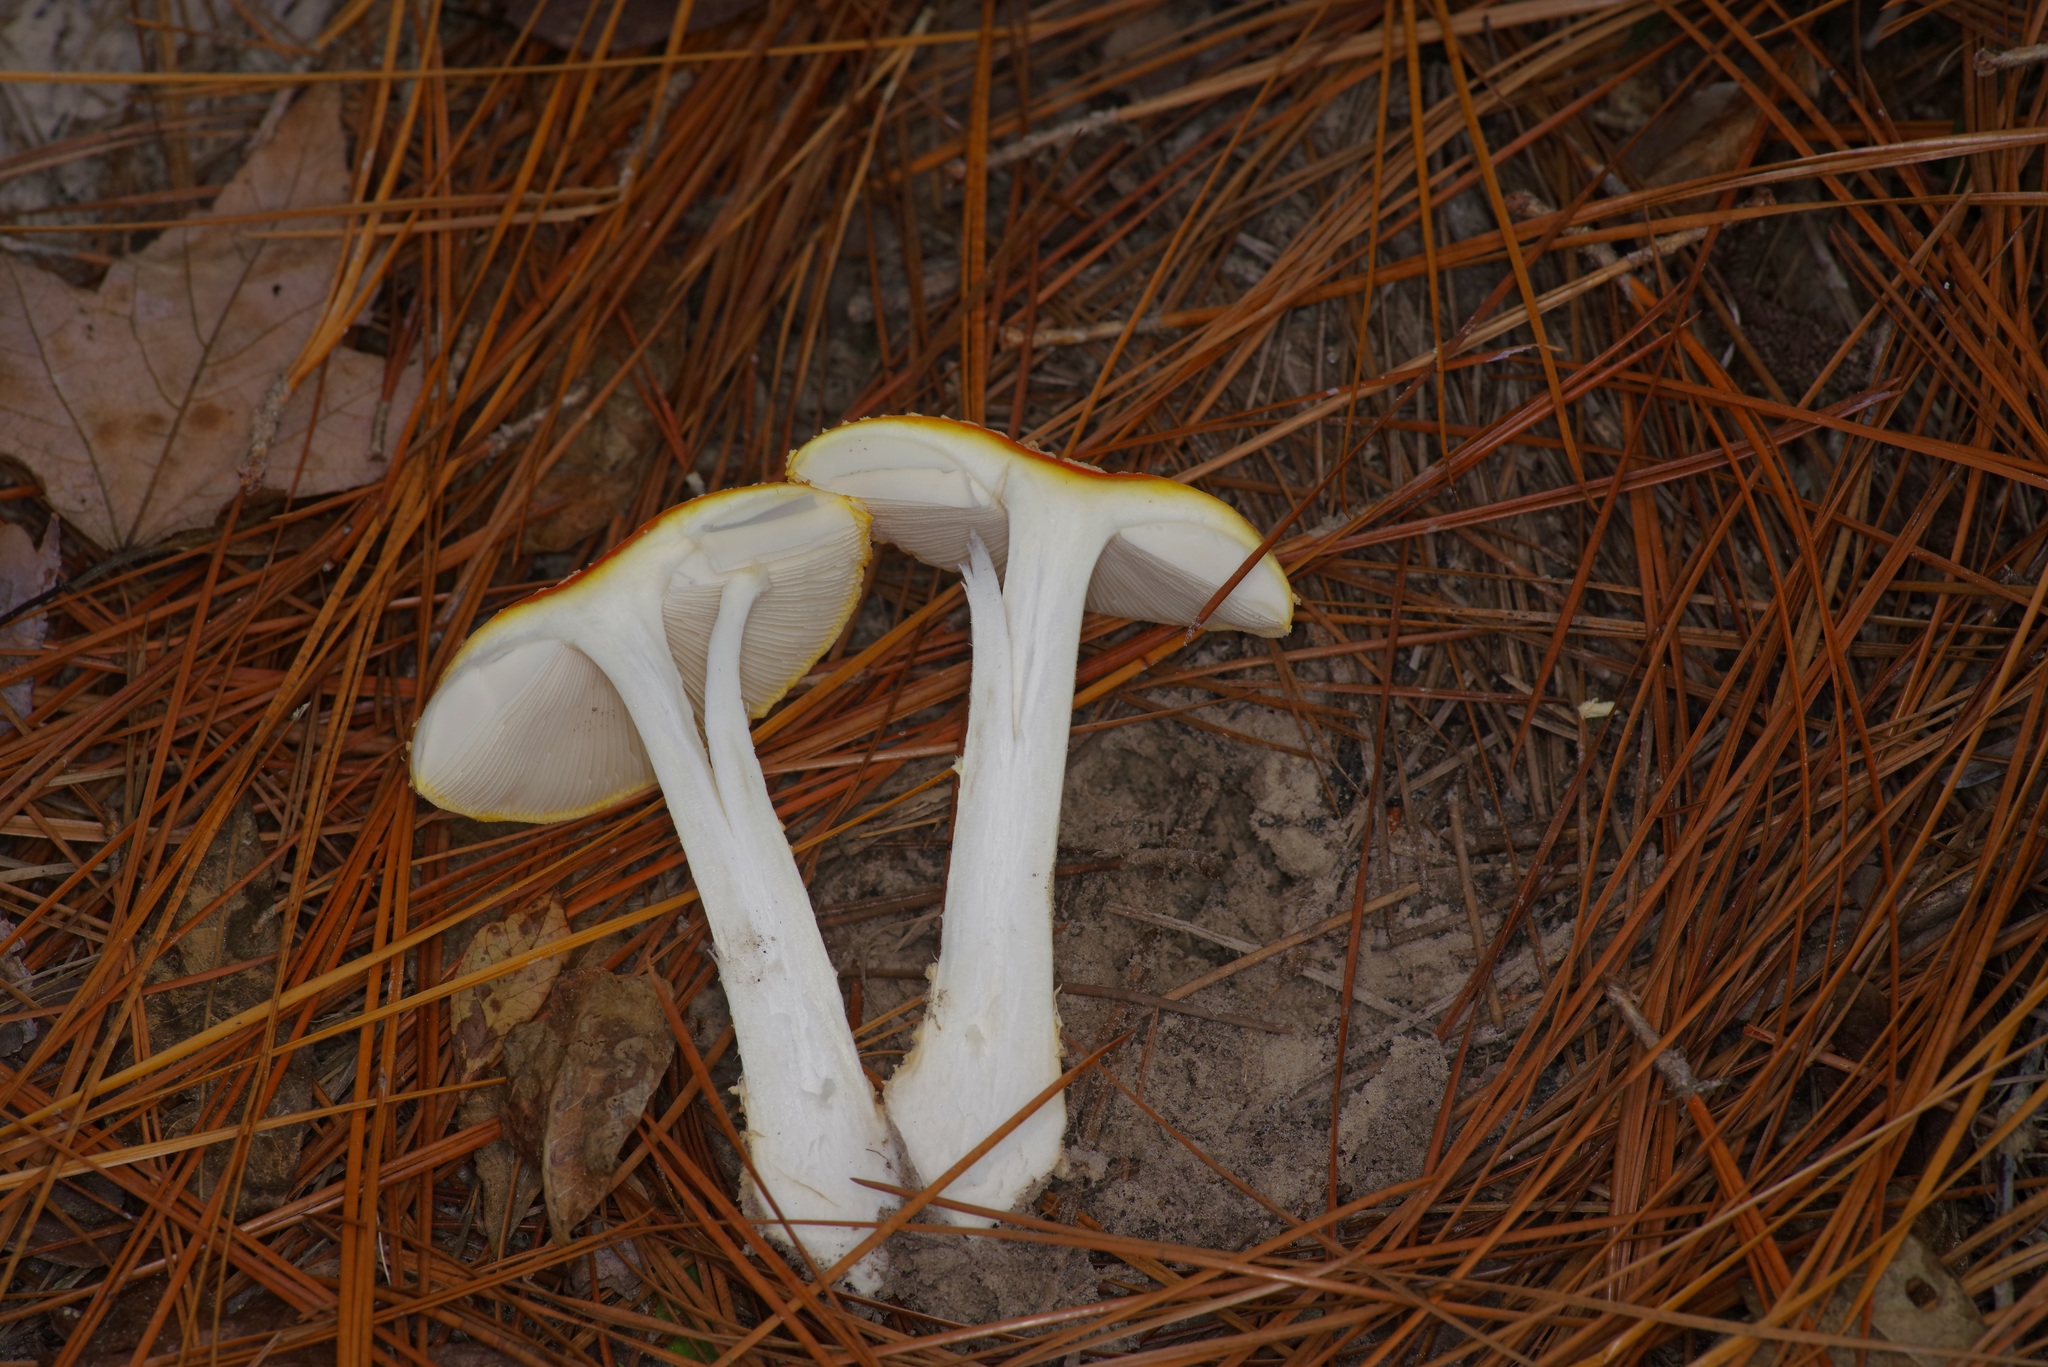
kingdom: Fungi
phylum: Basidiomycota
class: Agaricomycetes
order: Agaricales
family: Amanitaceae
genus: Amanita
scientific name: Amanita persicina
